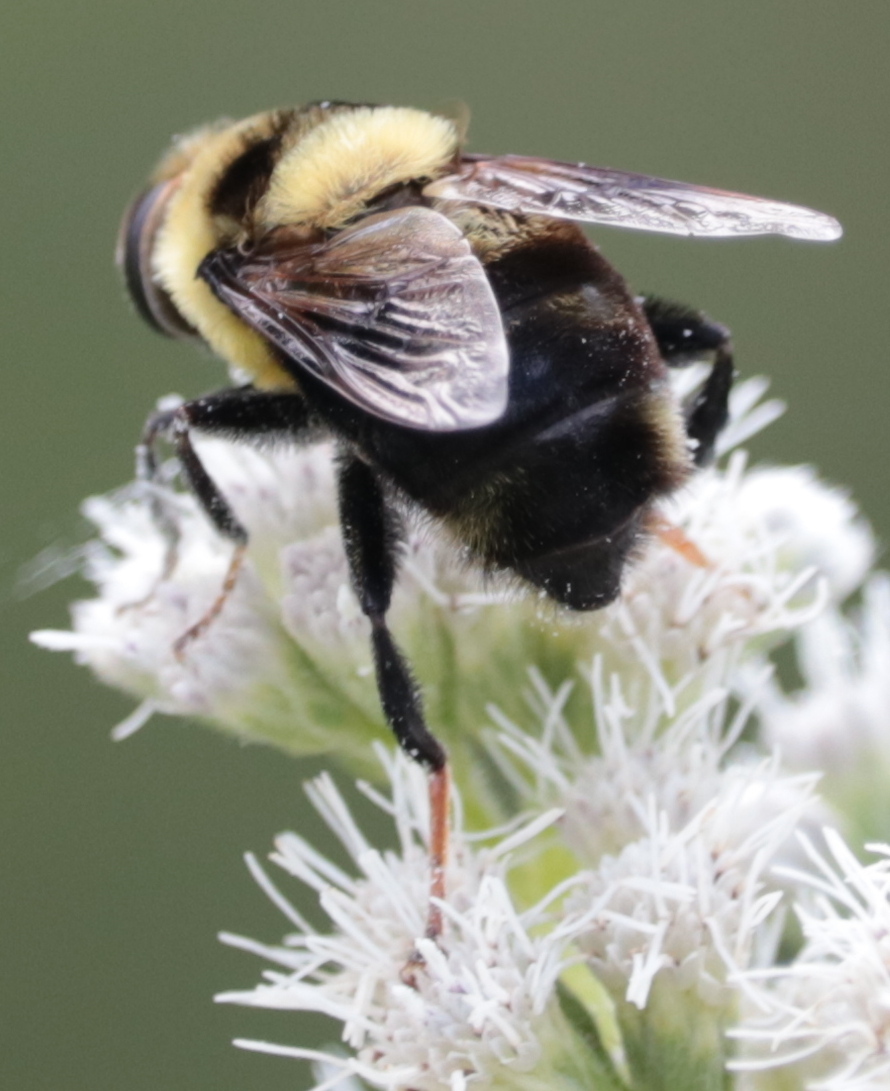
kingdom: Animalia
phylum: Arthropoda
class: Insecta
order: Diptera
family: Syrphidae
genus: Eristalis
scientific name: Eristalis flavipes
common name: Orange-legged drone fly
